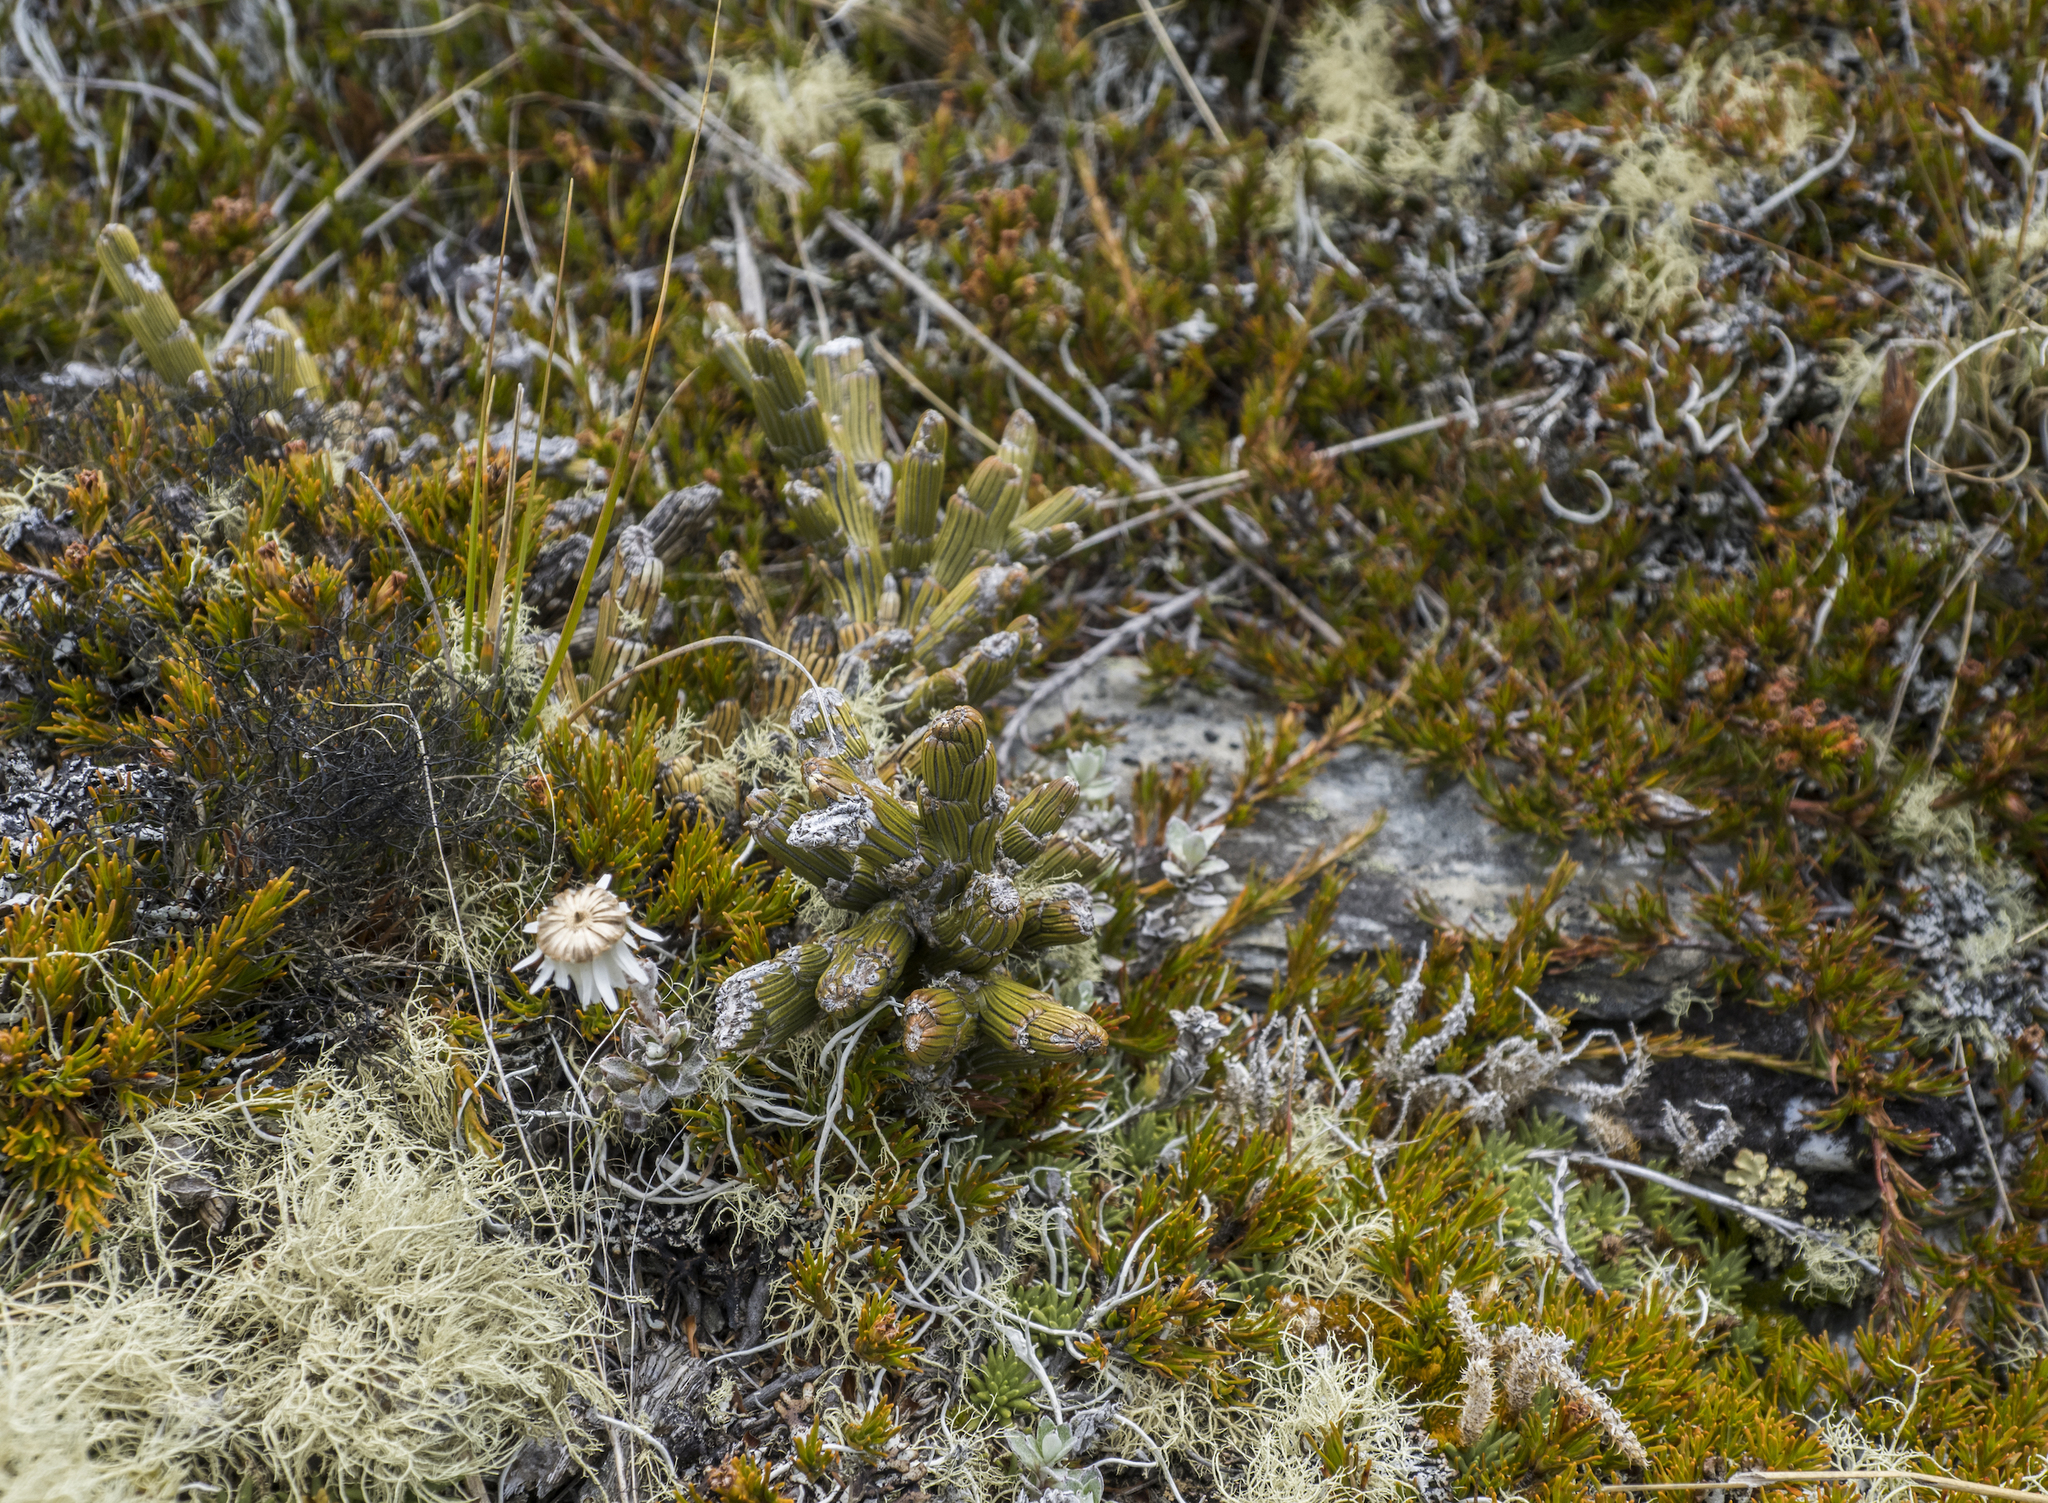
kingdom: Plantae
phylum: Tracheophyta
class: Magnoliopsida
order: Fabales
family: Fabaceae
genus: Carmichaelia
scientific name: Carmichaelia crassicaulis
